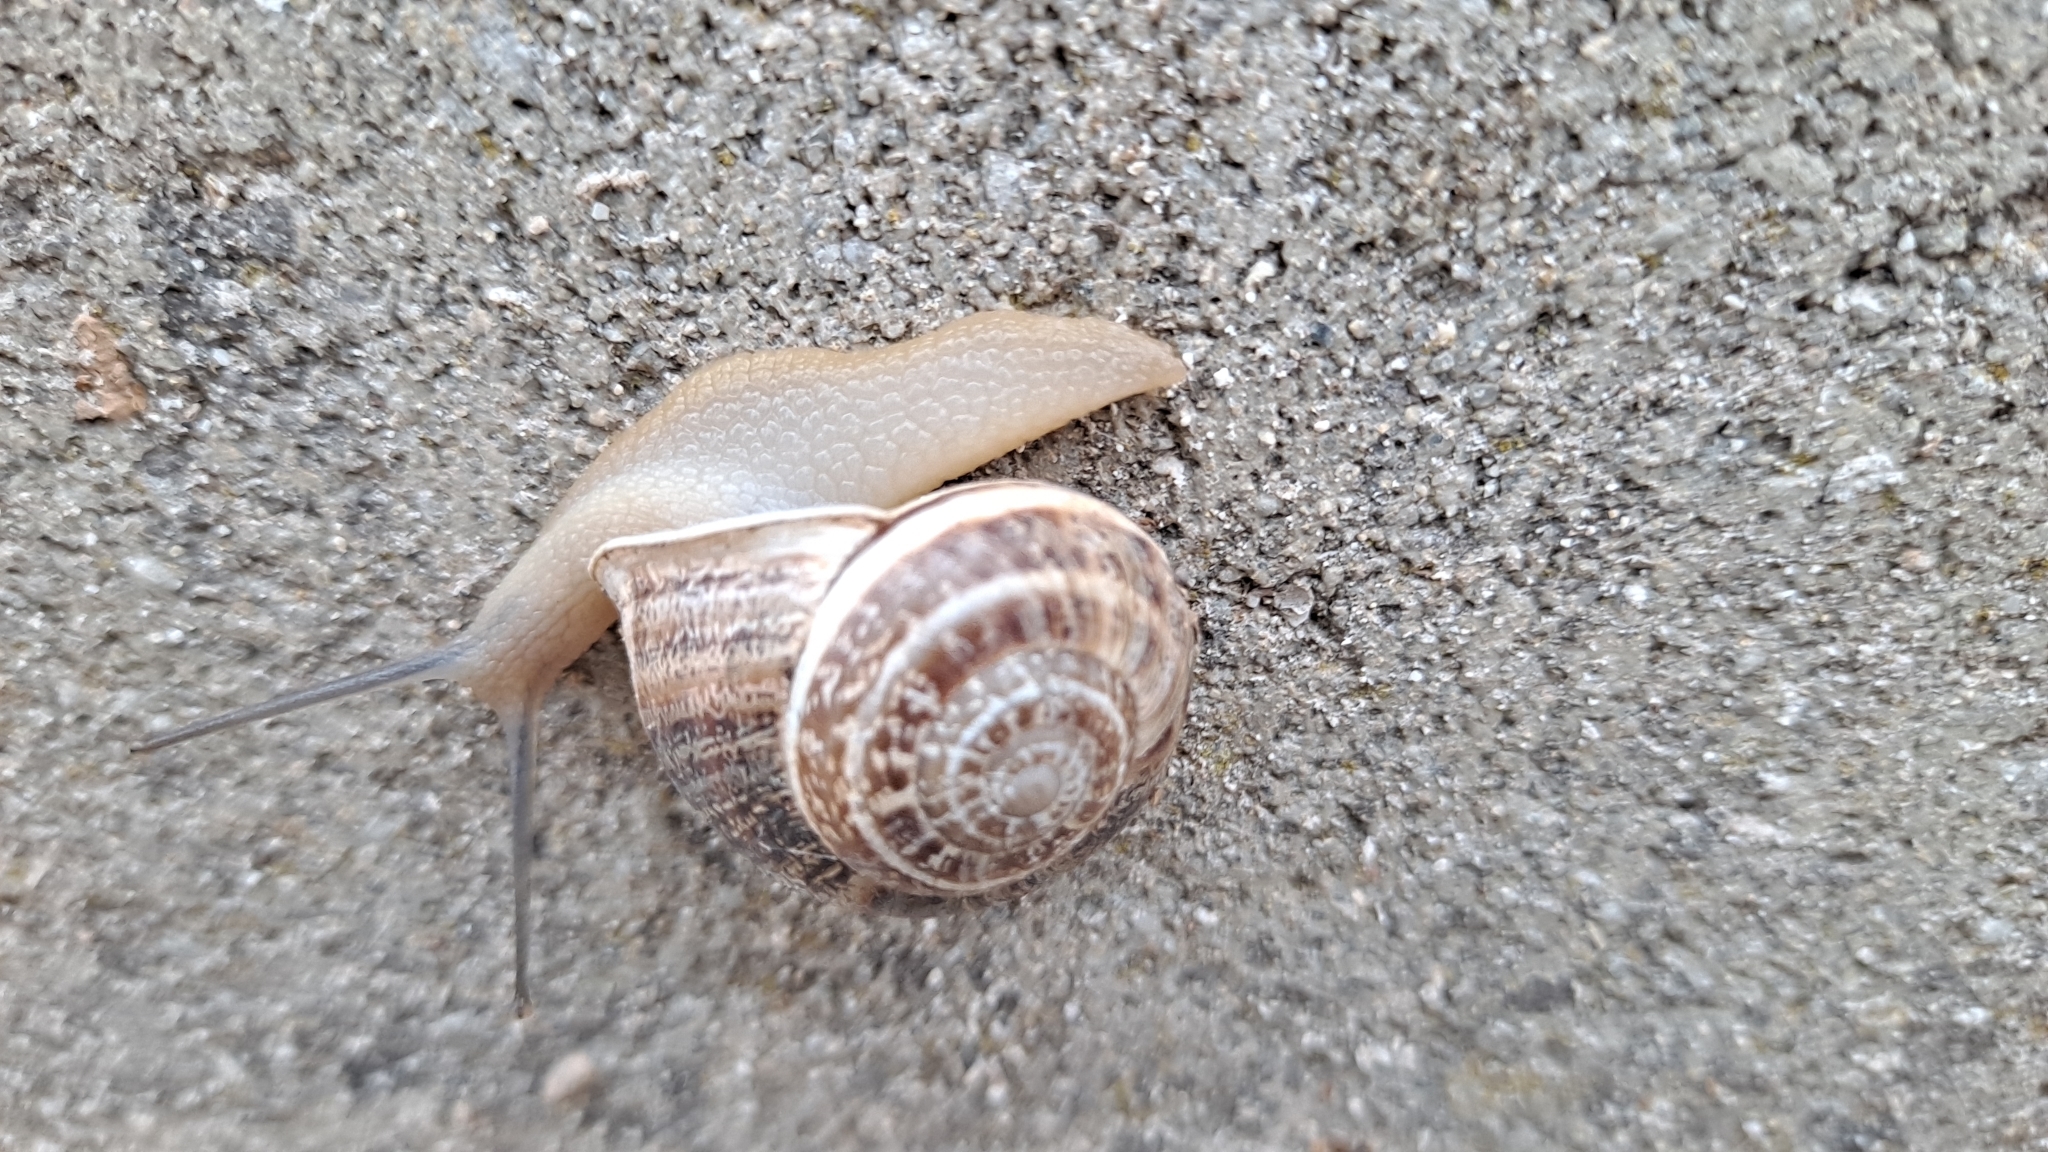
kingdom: Animalia
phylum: Mollusca
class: Gastropoda
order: Stylommatophora
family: Helicidae
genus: Eobania
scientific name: Eobania vermiculata
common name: Chocolateband snail
